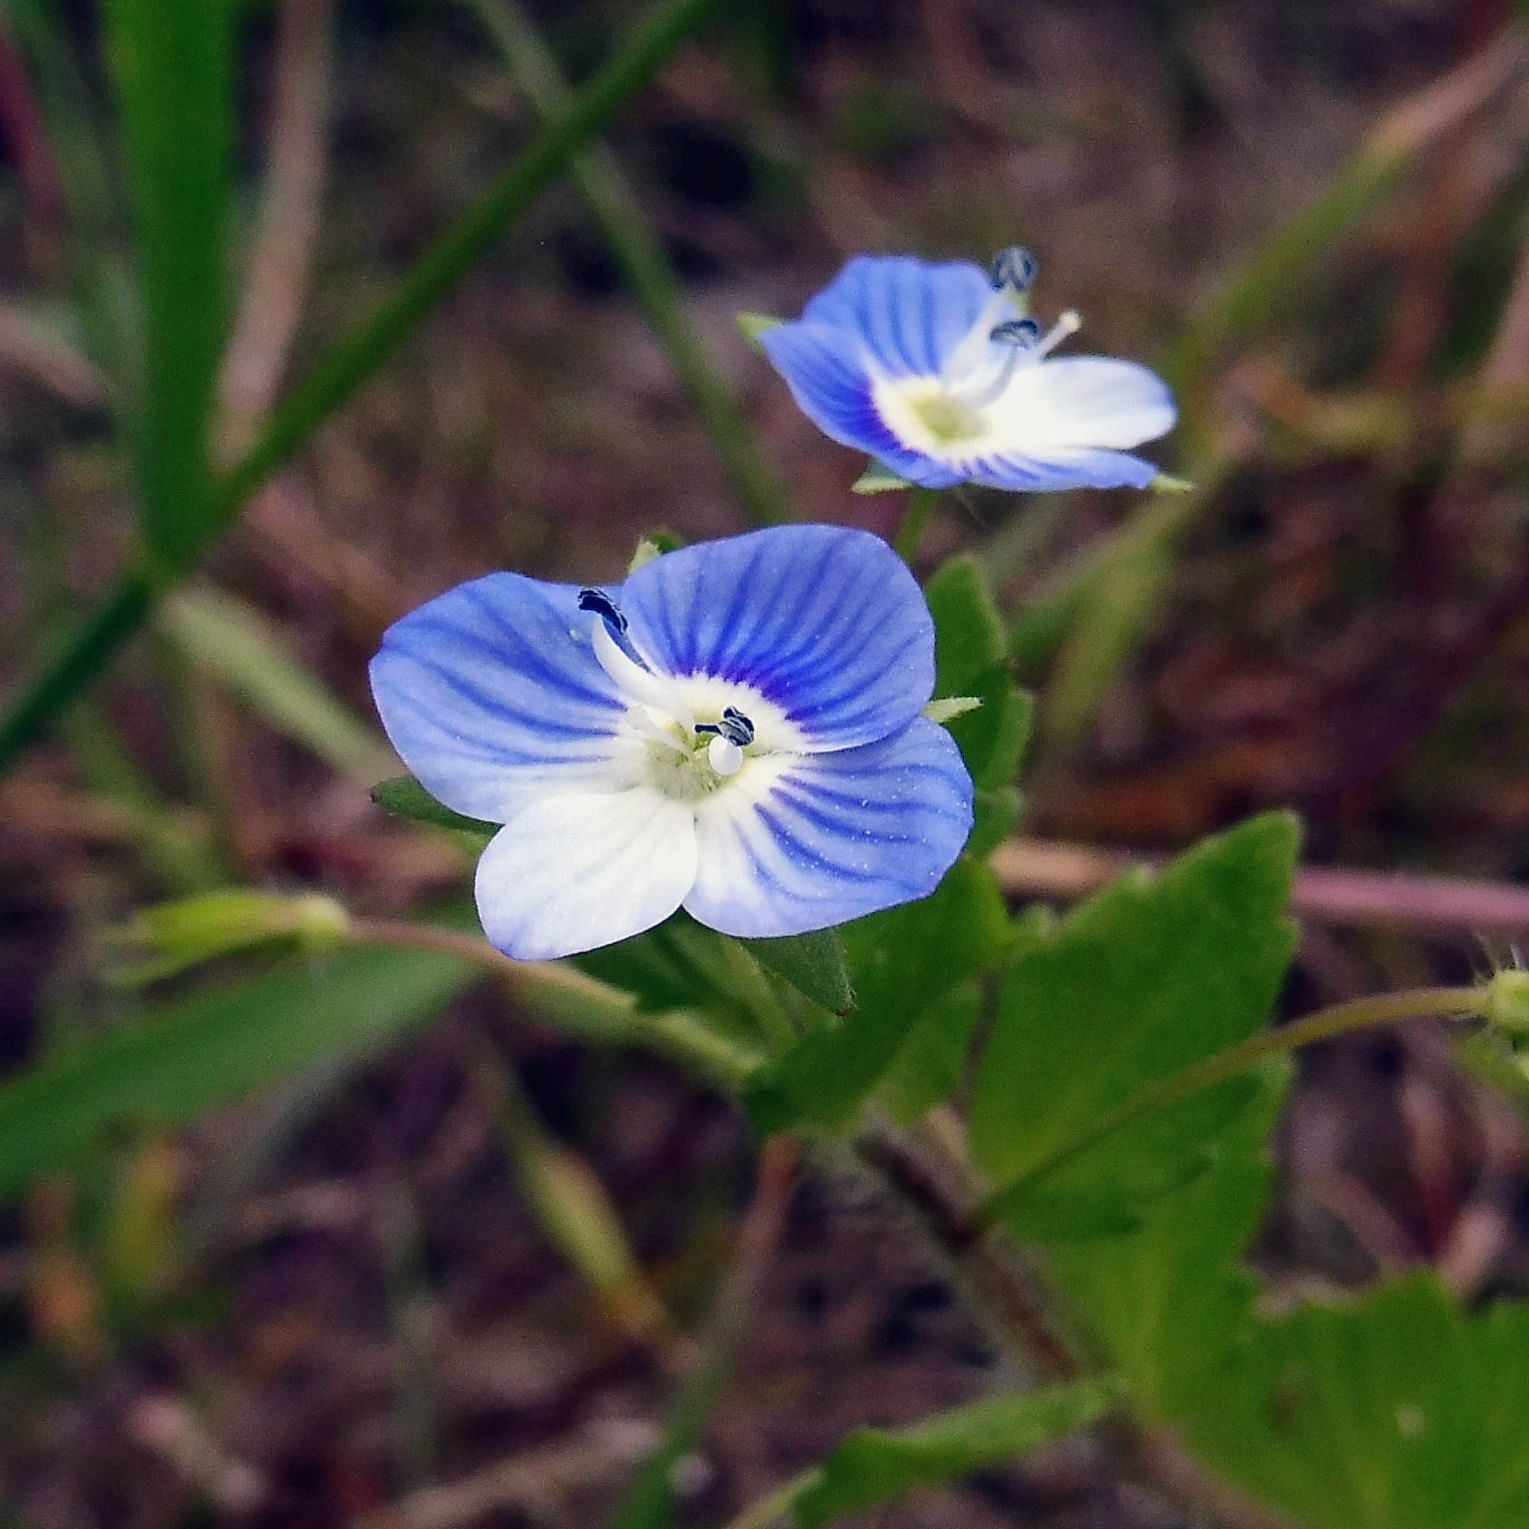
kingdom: Plantae
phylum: Tracheophyta
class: Magnoliopsida
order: Lamiales
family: Plantaginaceae
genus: Veronica
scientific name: Veronica persica
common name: Common field-speedwell
